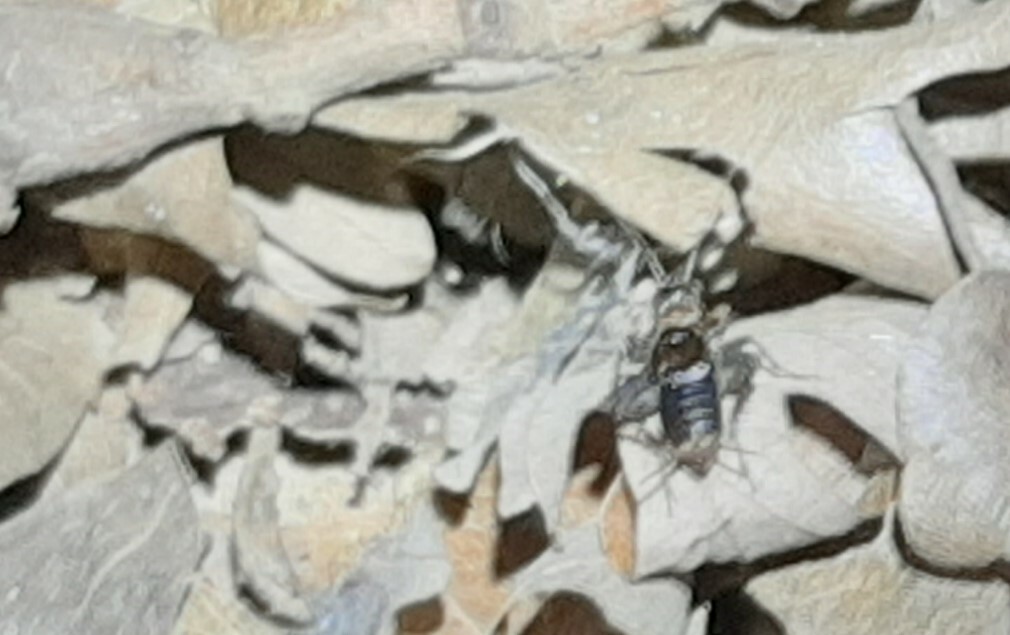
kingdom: Animalia
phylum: Arthropoda
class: Insecta
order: Orthoptera
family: Trigonidiidae
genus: Nemobius
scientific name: Nemobius sylvestris
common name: Wood-cricket
